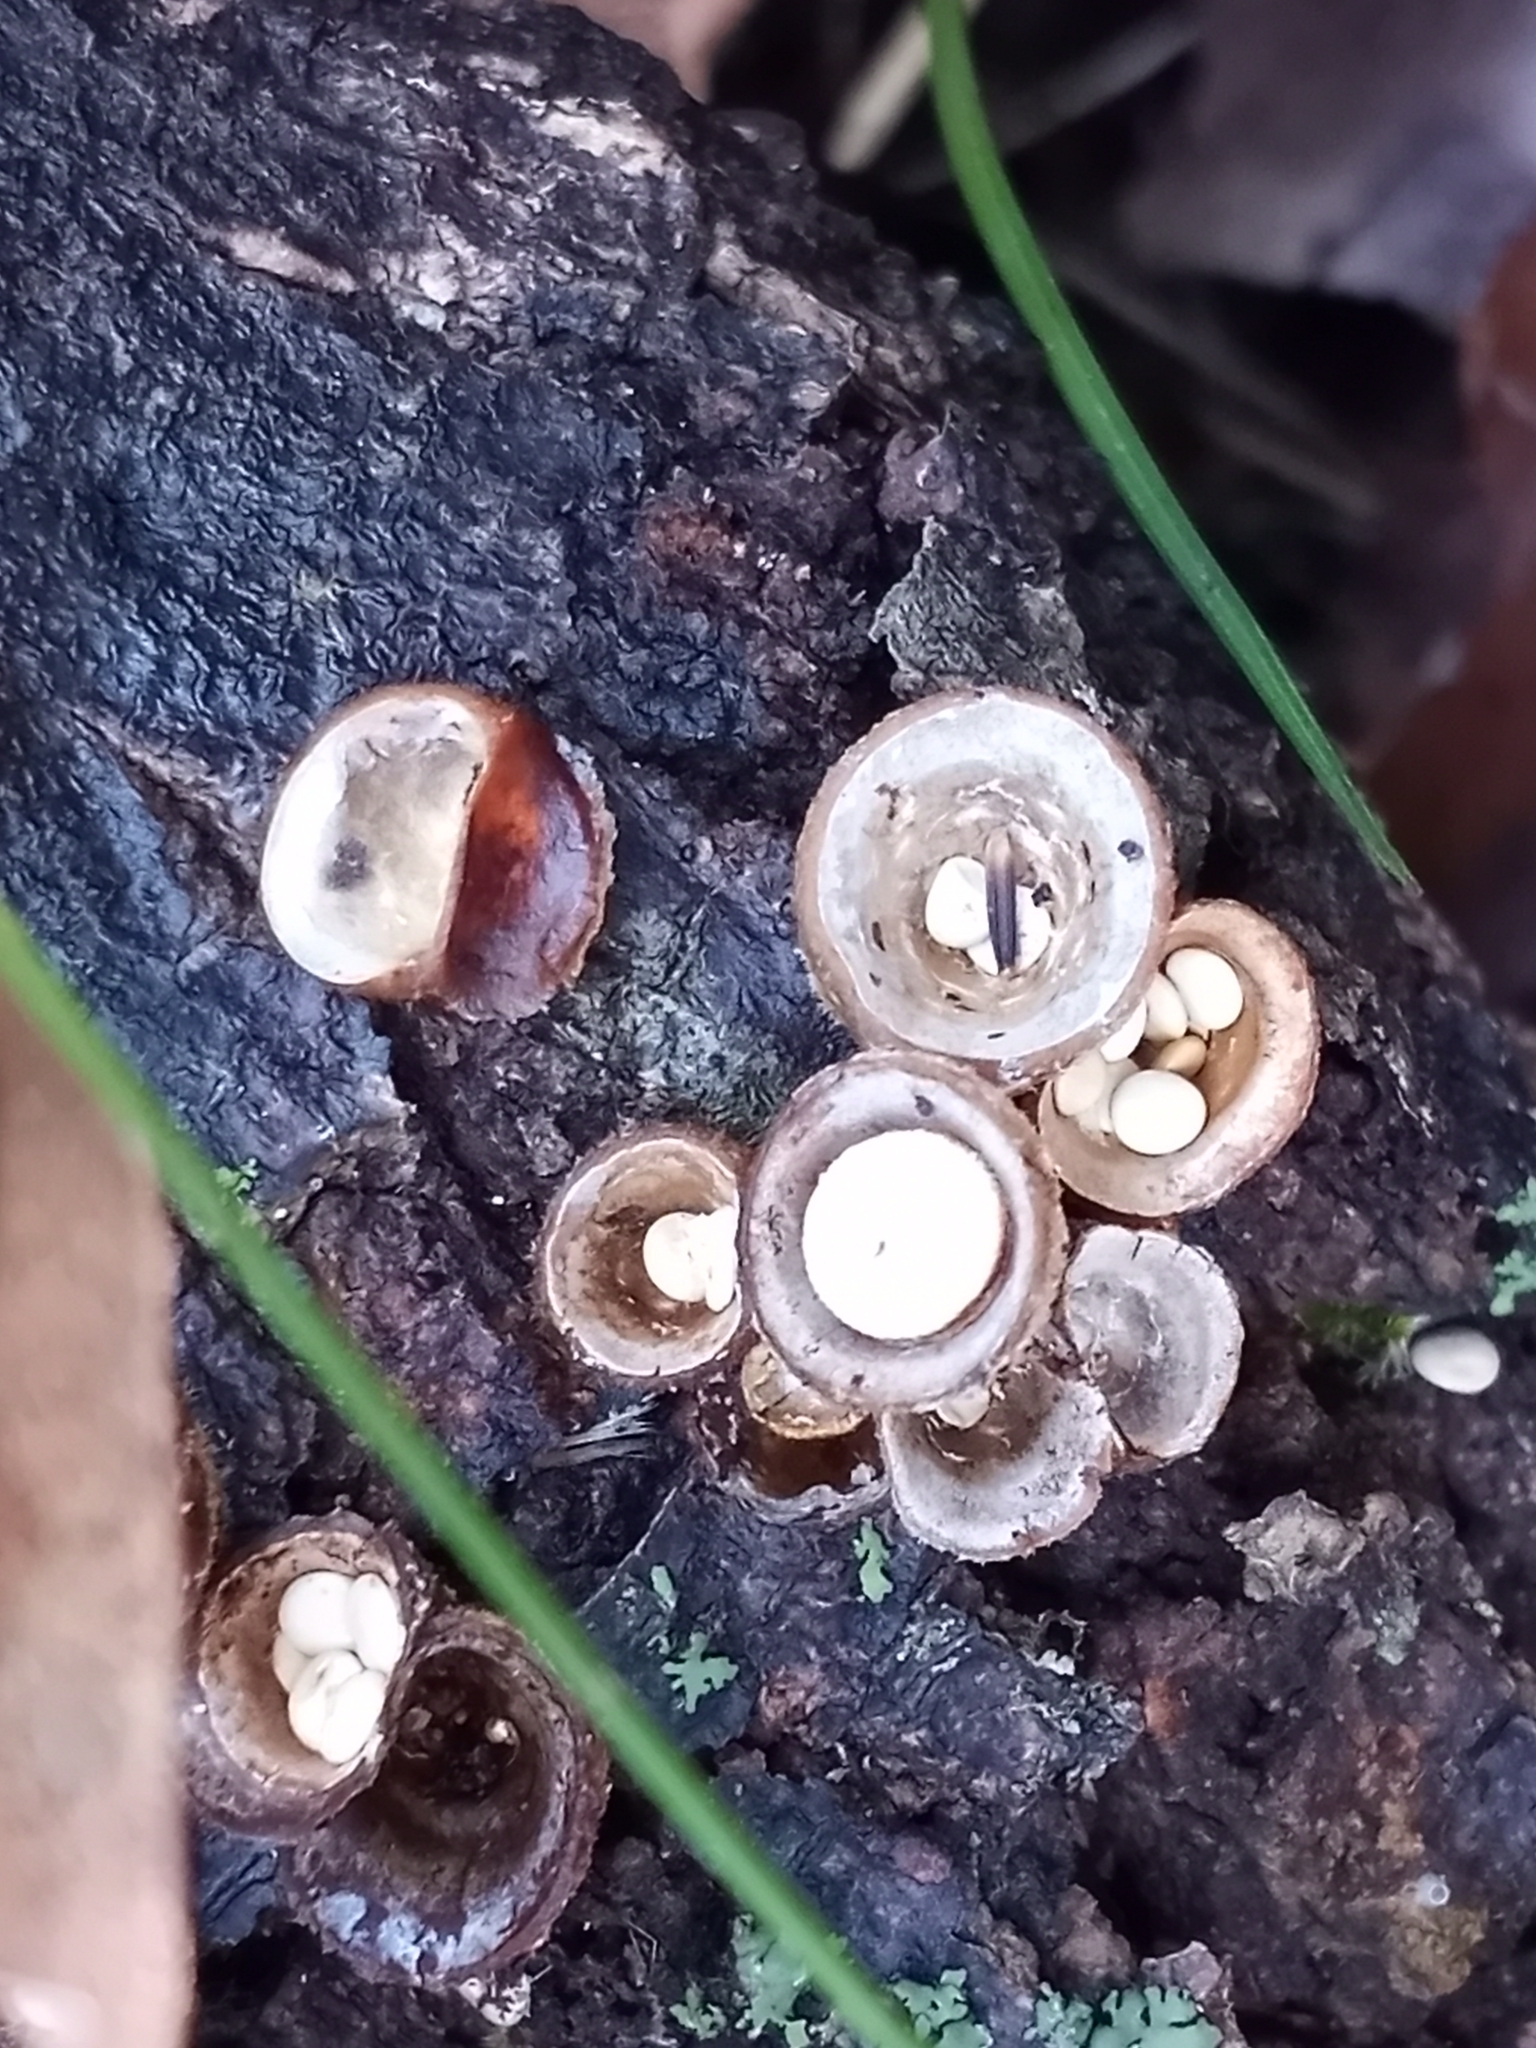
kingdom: Fungi
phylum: Basidiomycota
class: Agaricomycetes
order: Agaricales
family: Nidulariaceae
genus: Crucibulum
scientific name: Crucibulum laeve
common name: Common bird's nest
